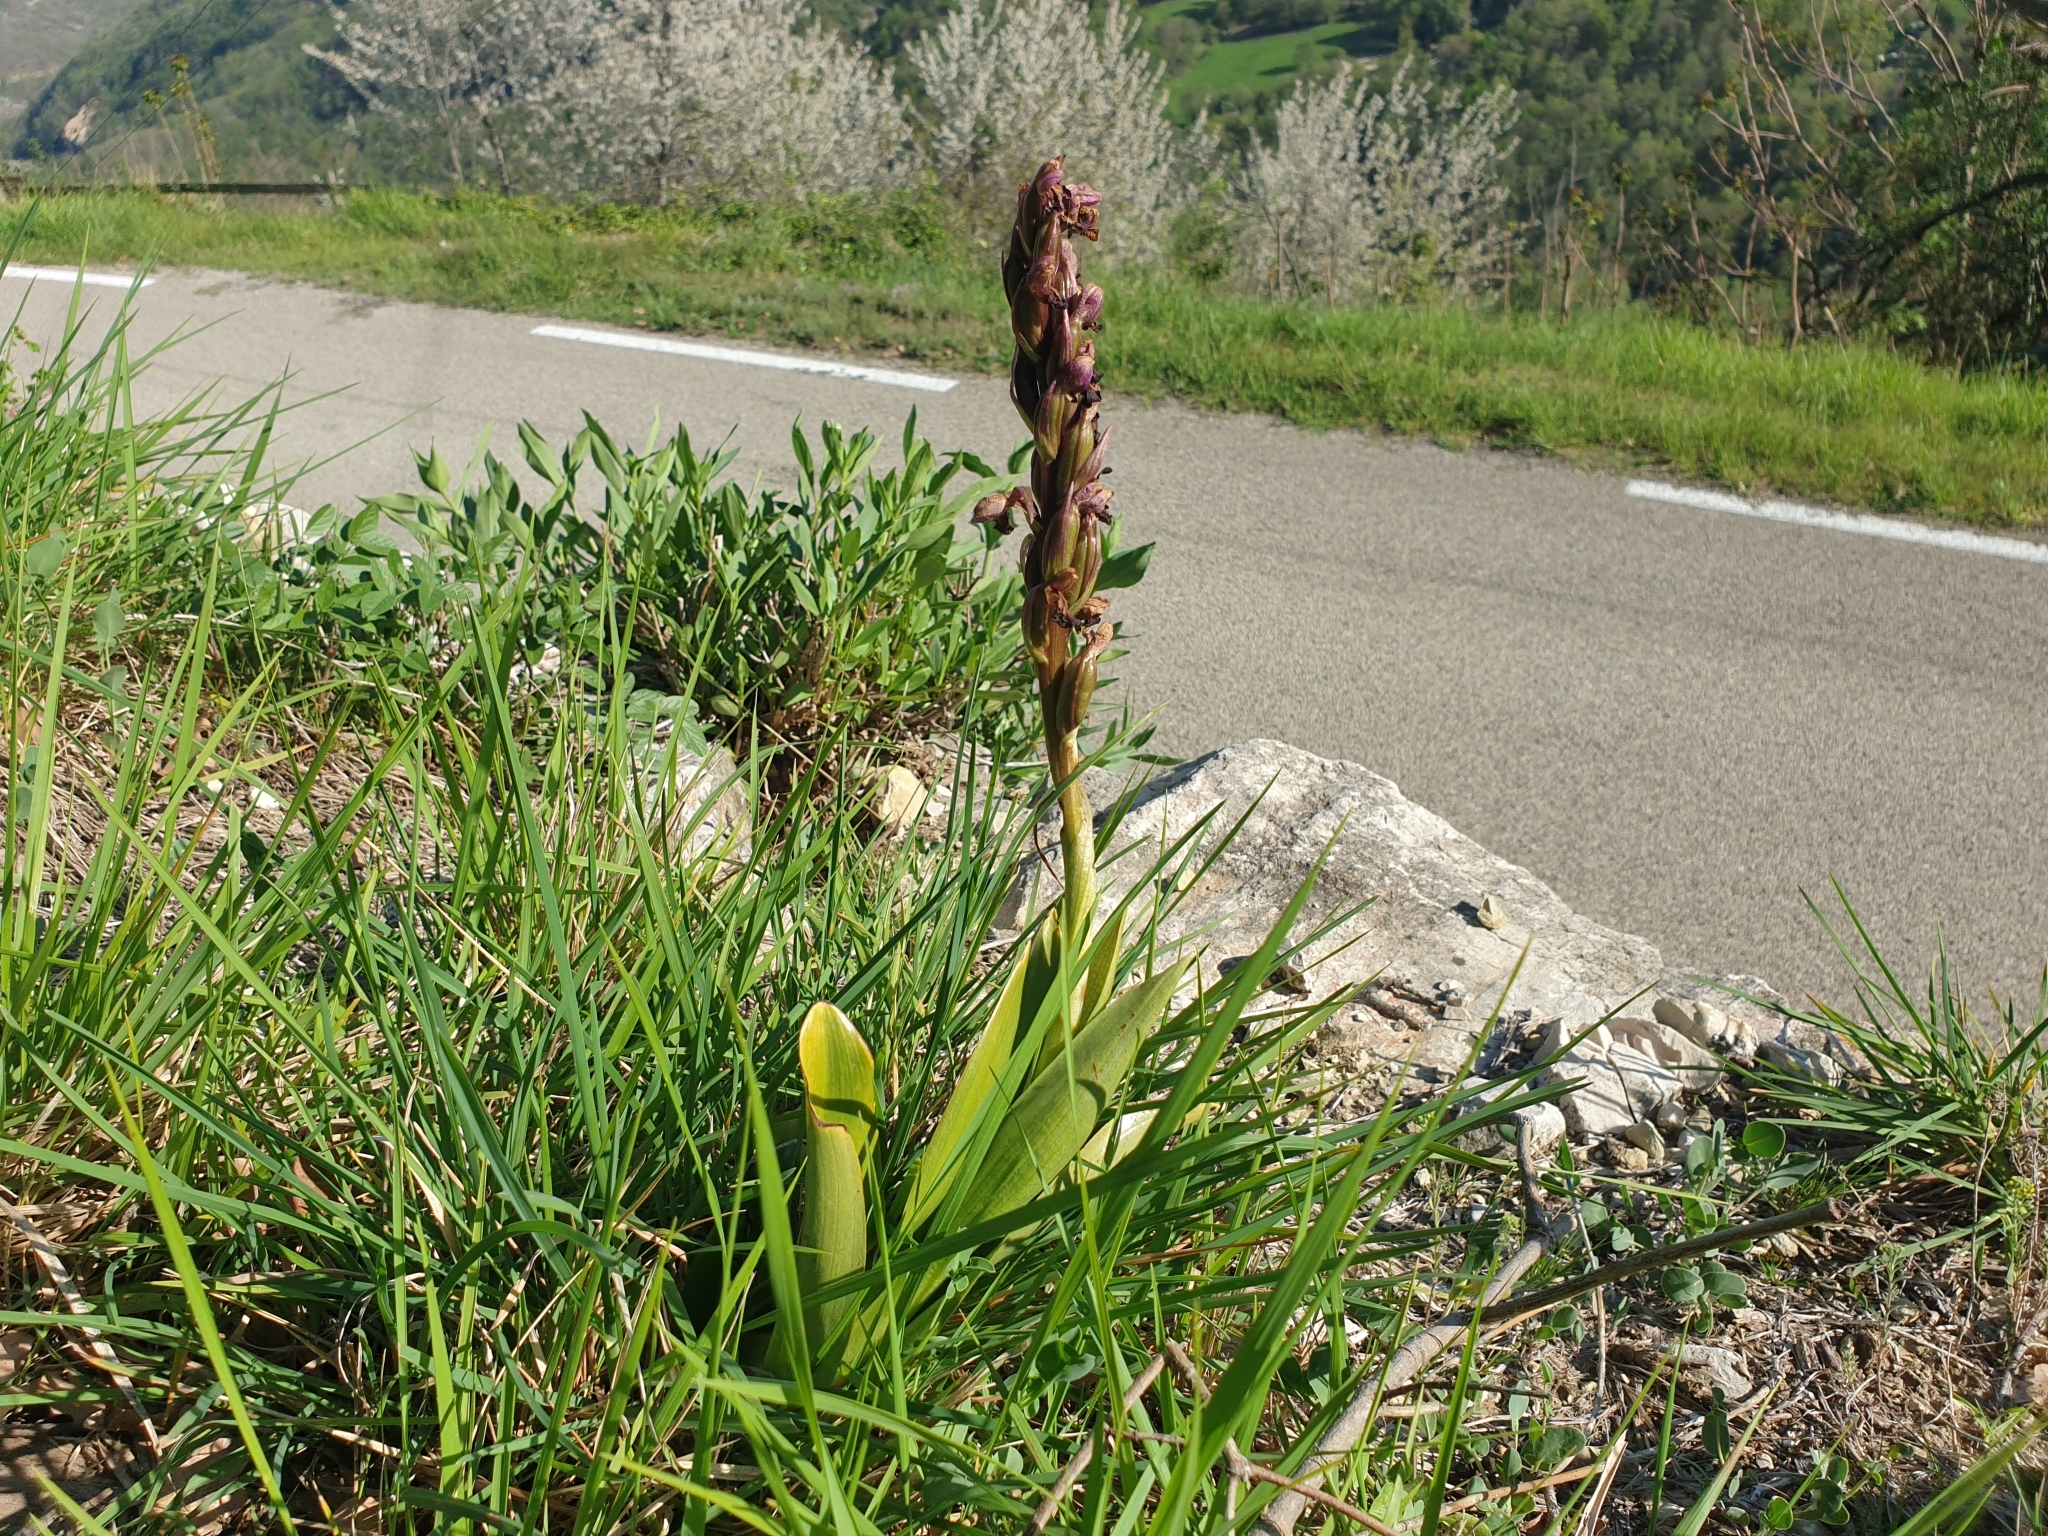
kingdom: Plantae
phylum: Tracheophyta
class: Liliopsida
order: Asparagales
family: Orchidaceae
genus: Himantoglossum
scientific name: Himantoglossum robertianum
